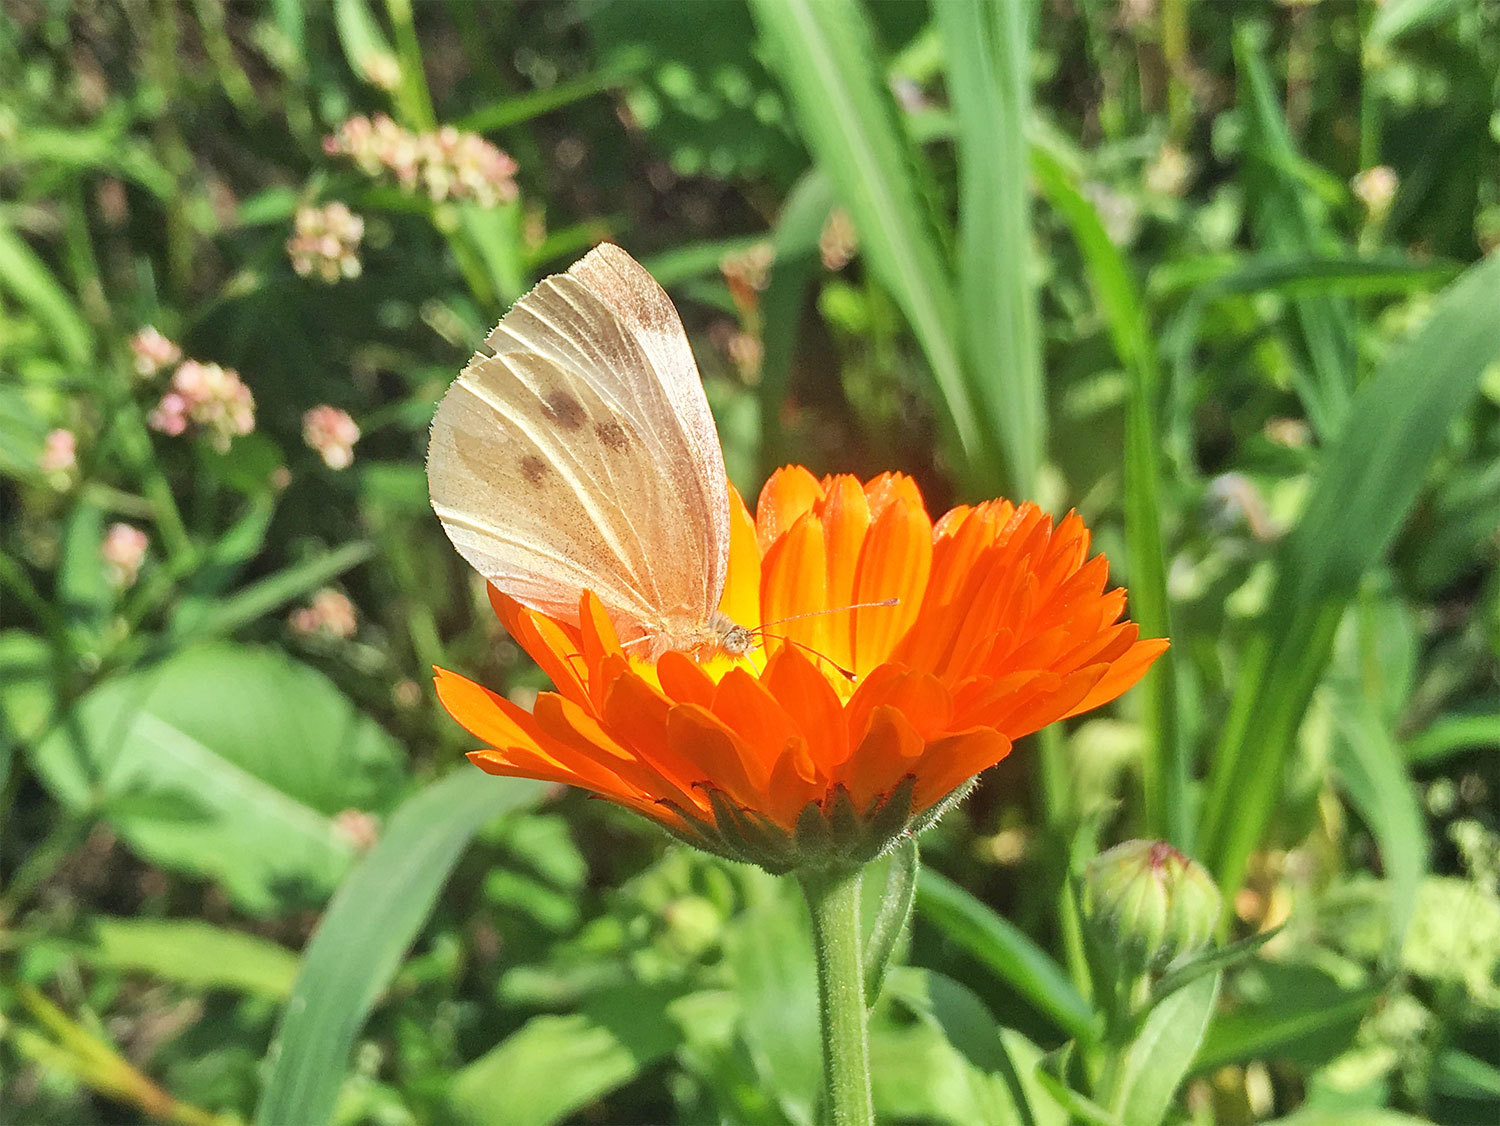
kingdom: Animalia
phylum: Arthropoda
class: Insecta
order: Lepidoptera
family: Pieridae
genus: Pieris
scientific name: Pieris rapae
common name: Small white
